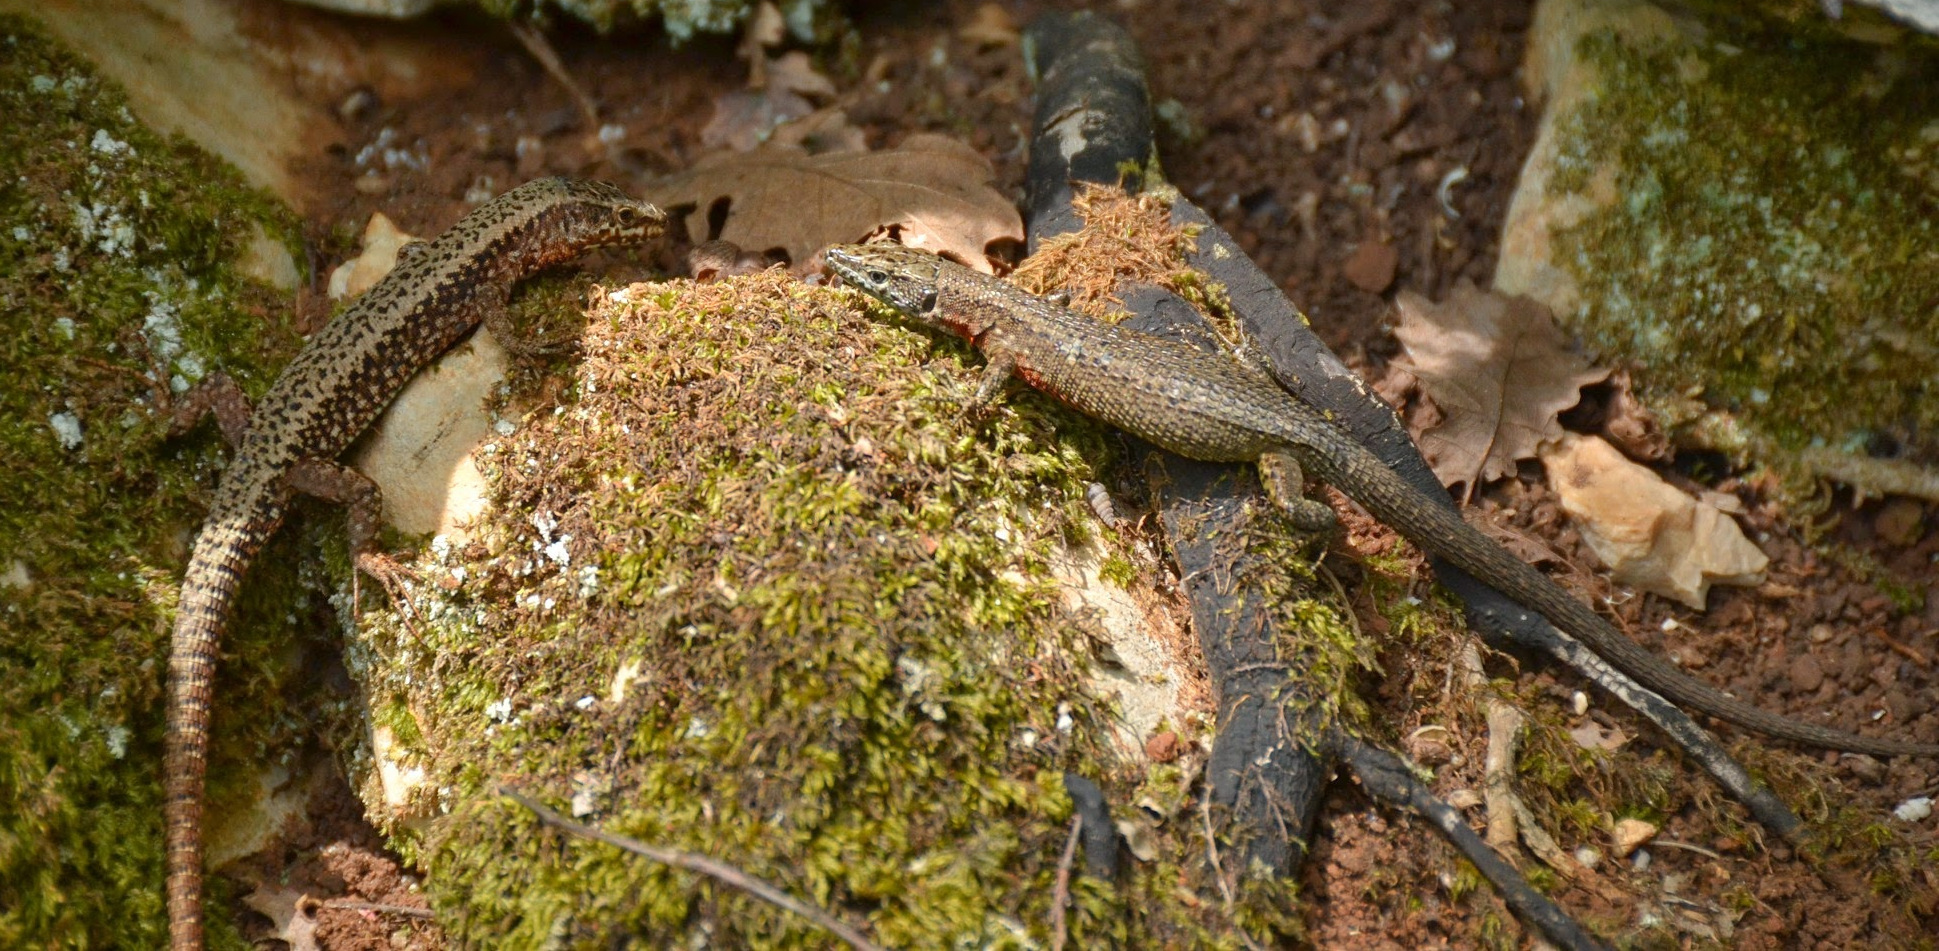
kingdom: Animalia
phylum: Chordata
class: Squamata
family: Lacertidae
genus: Algyroides
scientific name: Algyroides nigropunctatus
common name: Blue-throated keeled lizard
